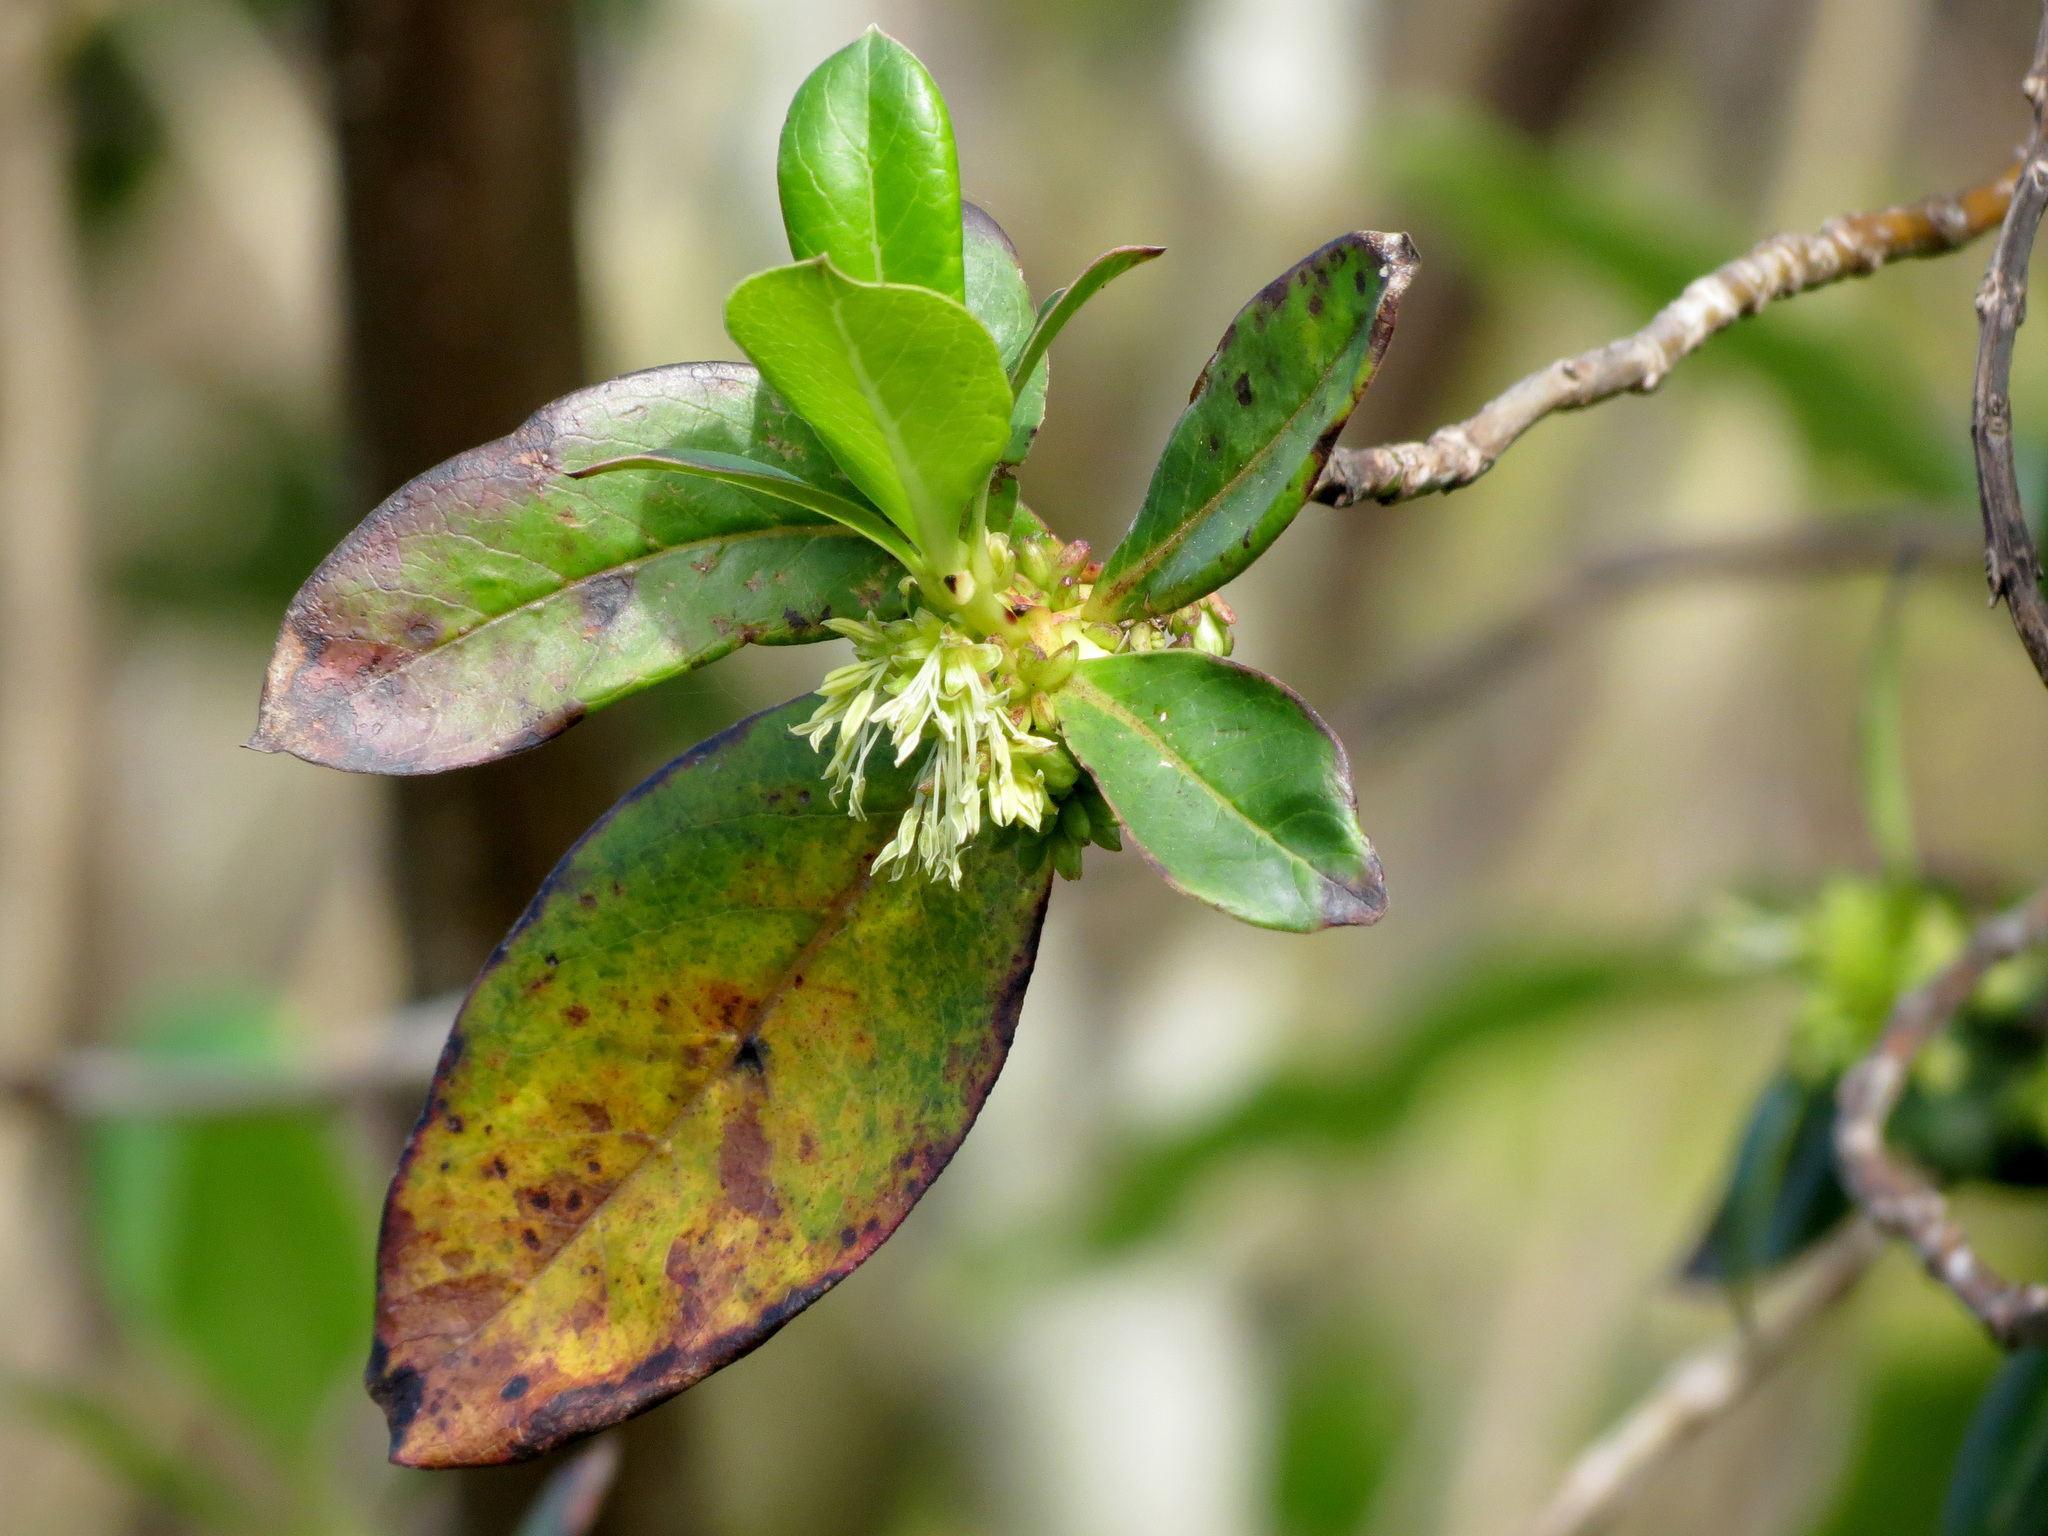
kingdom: Plantae
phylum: Tracheophyta
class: Magnoliopsida
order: Gentianales
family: Rubiaceae
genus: Coprosma
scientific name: Coprosma robusta
